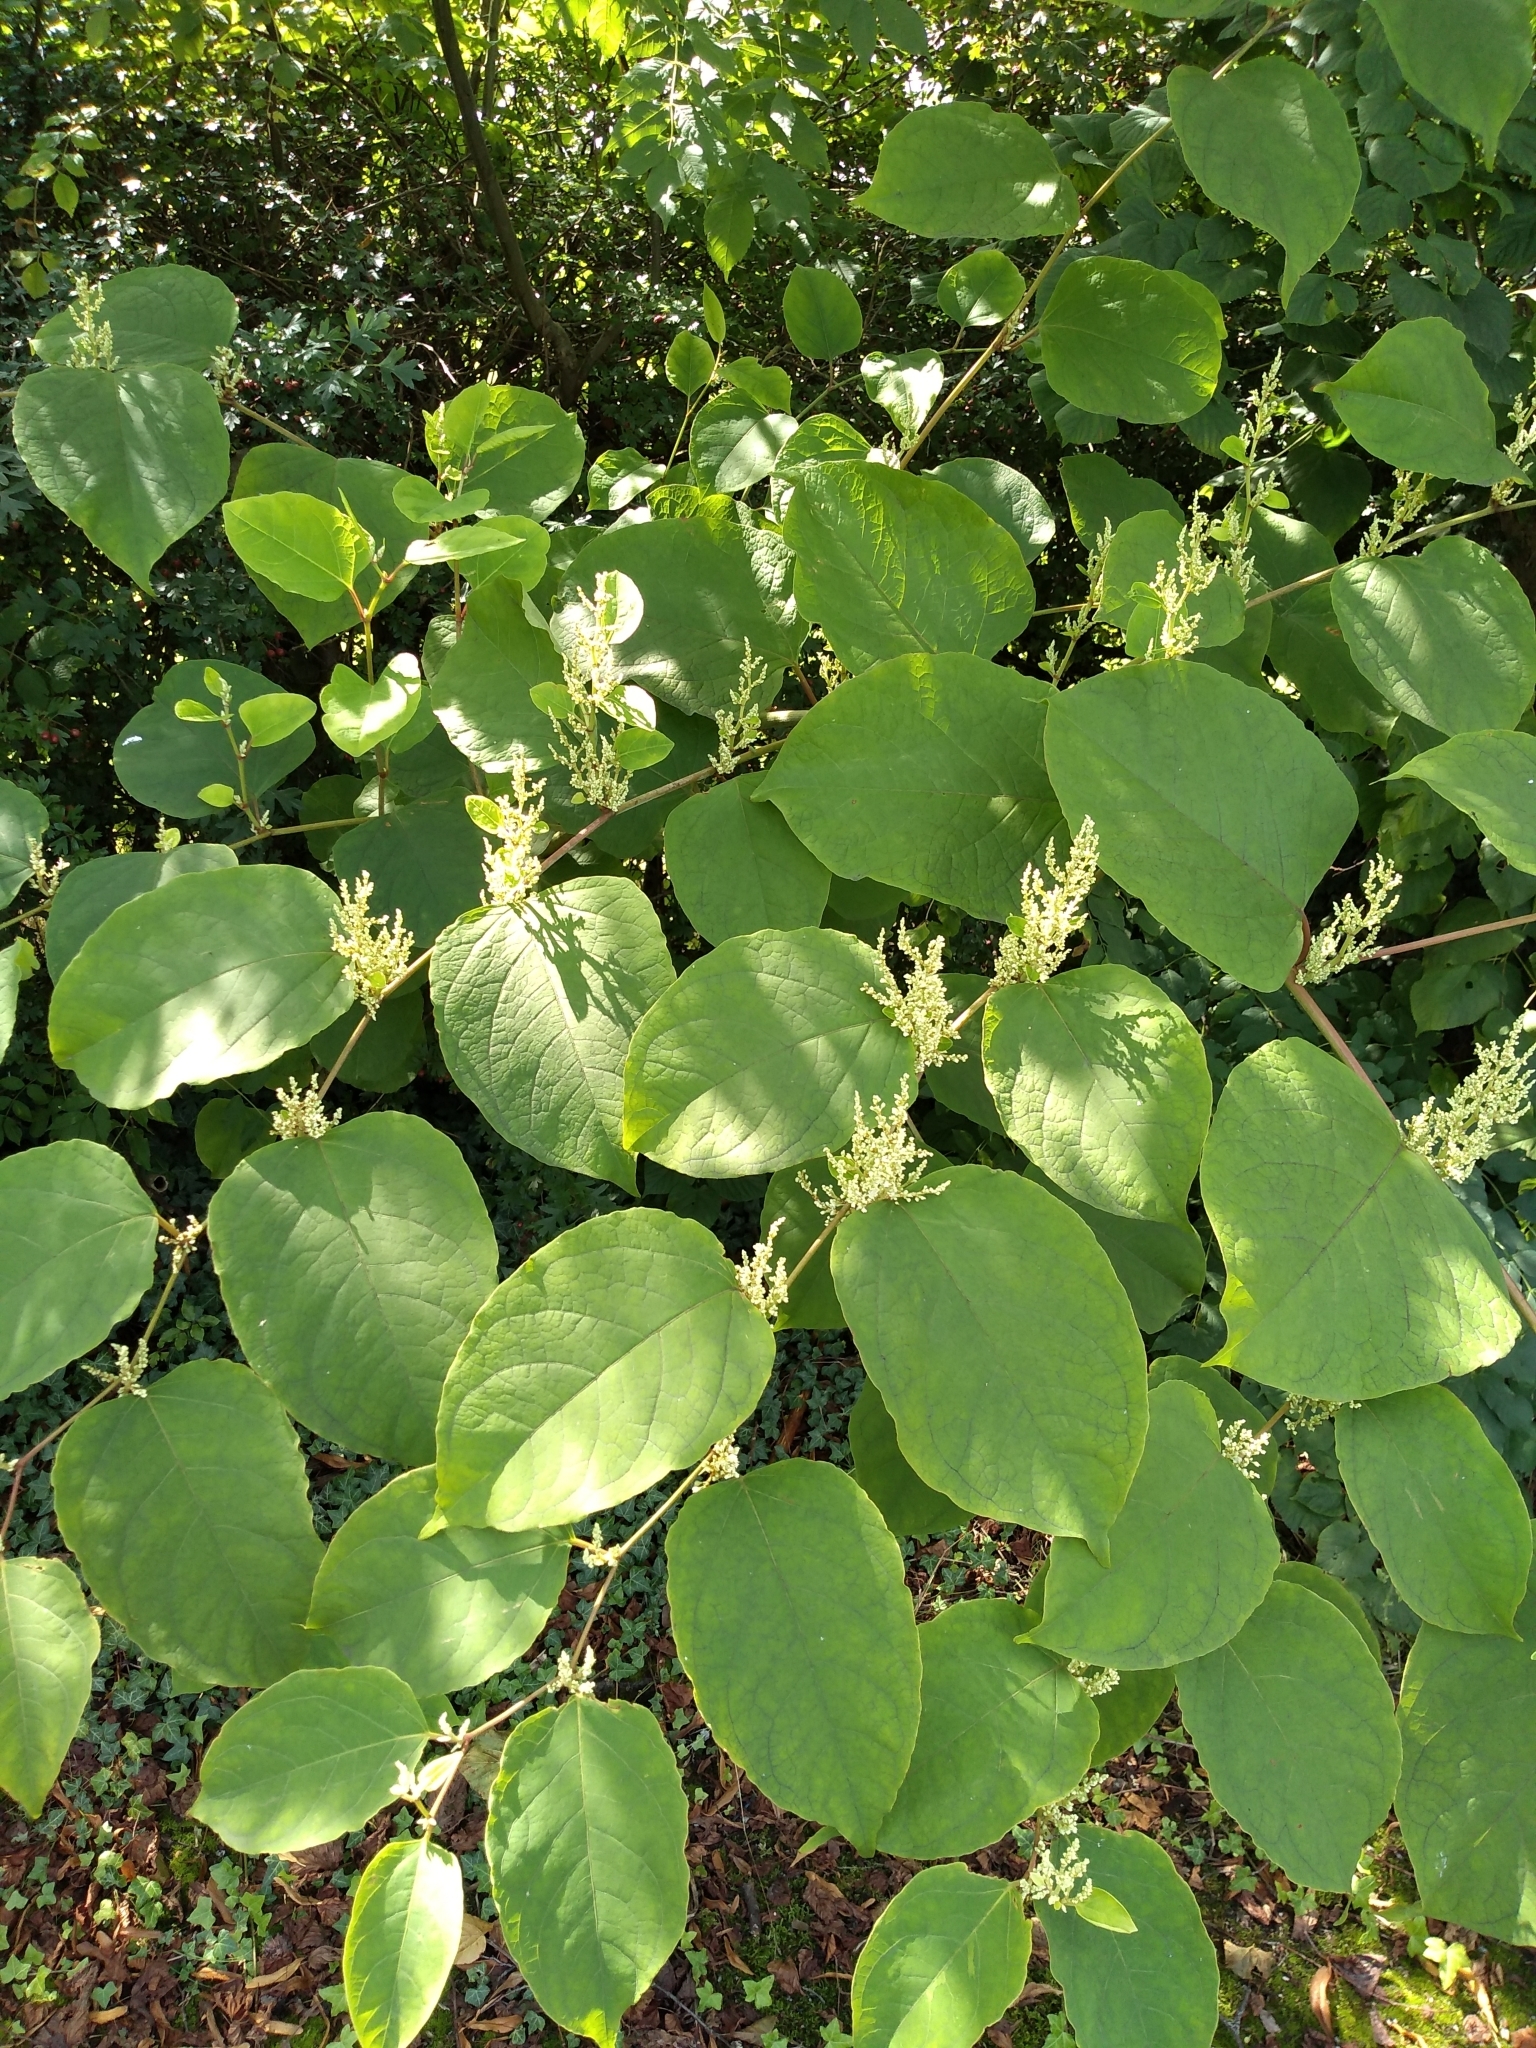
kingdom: Plantae
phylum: Tracheophyta
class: Magnoliopsida
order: Caryophyllales
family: Polygonaceae
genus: Reynoutria
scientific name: Reynoutria japonica
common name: Japanese knotweed
